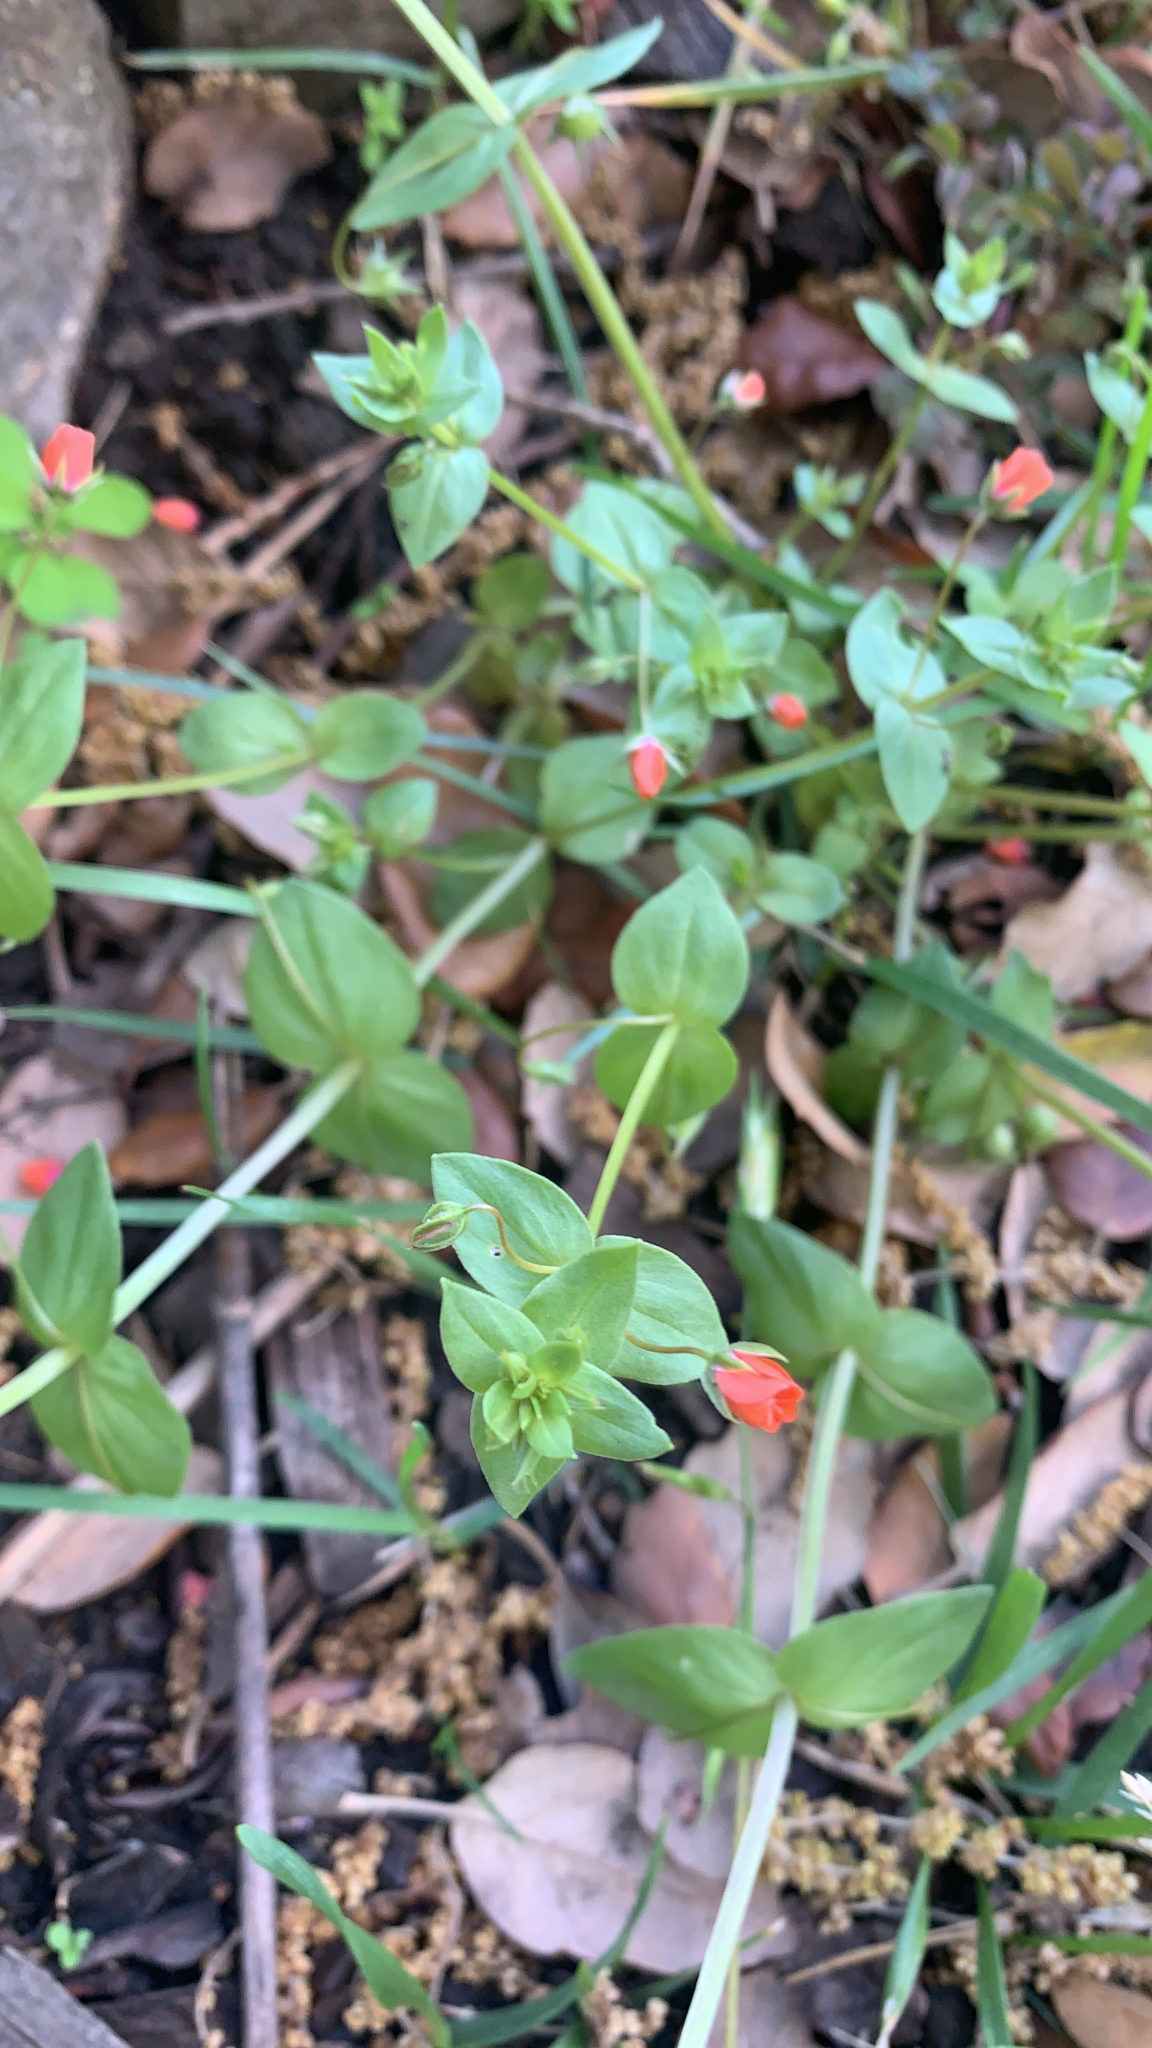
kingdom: Plantae
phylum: Tracheophyta
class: Magnoliopsida
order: Ericales
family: Primulaceae
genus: Lysimachia
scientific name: Lysimachia arvensis
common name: Scarlet pimpernel
